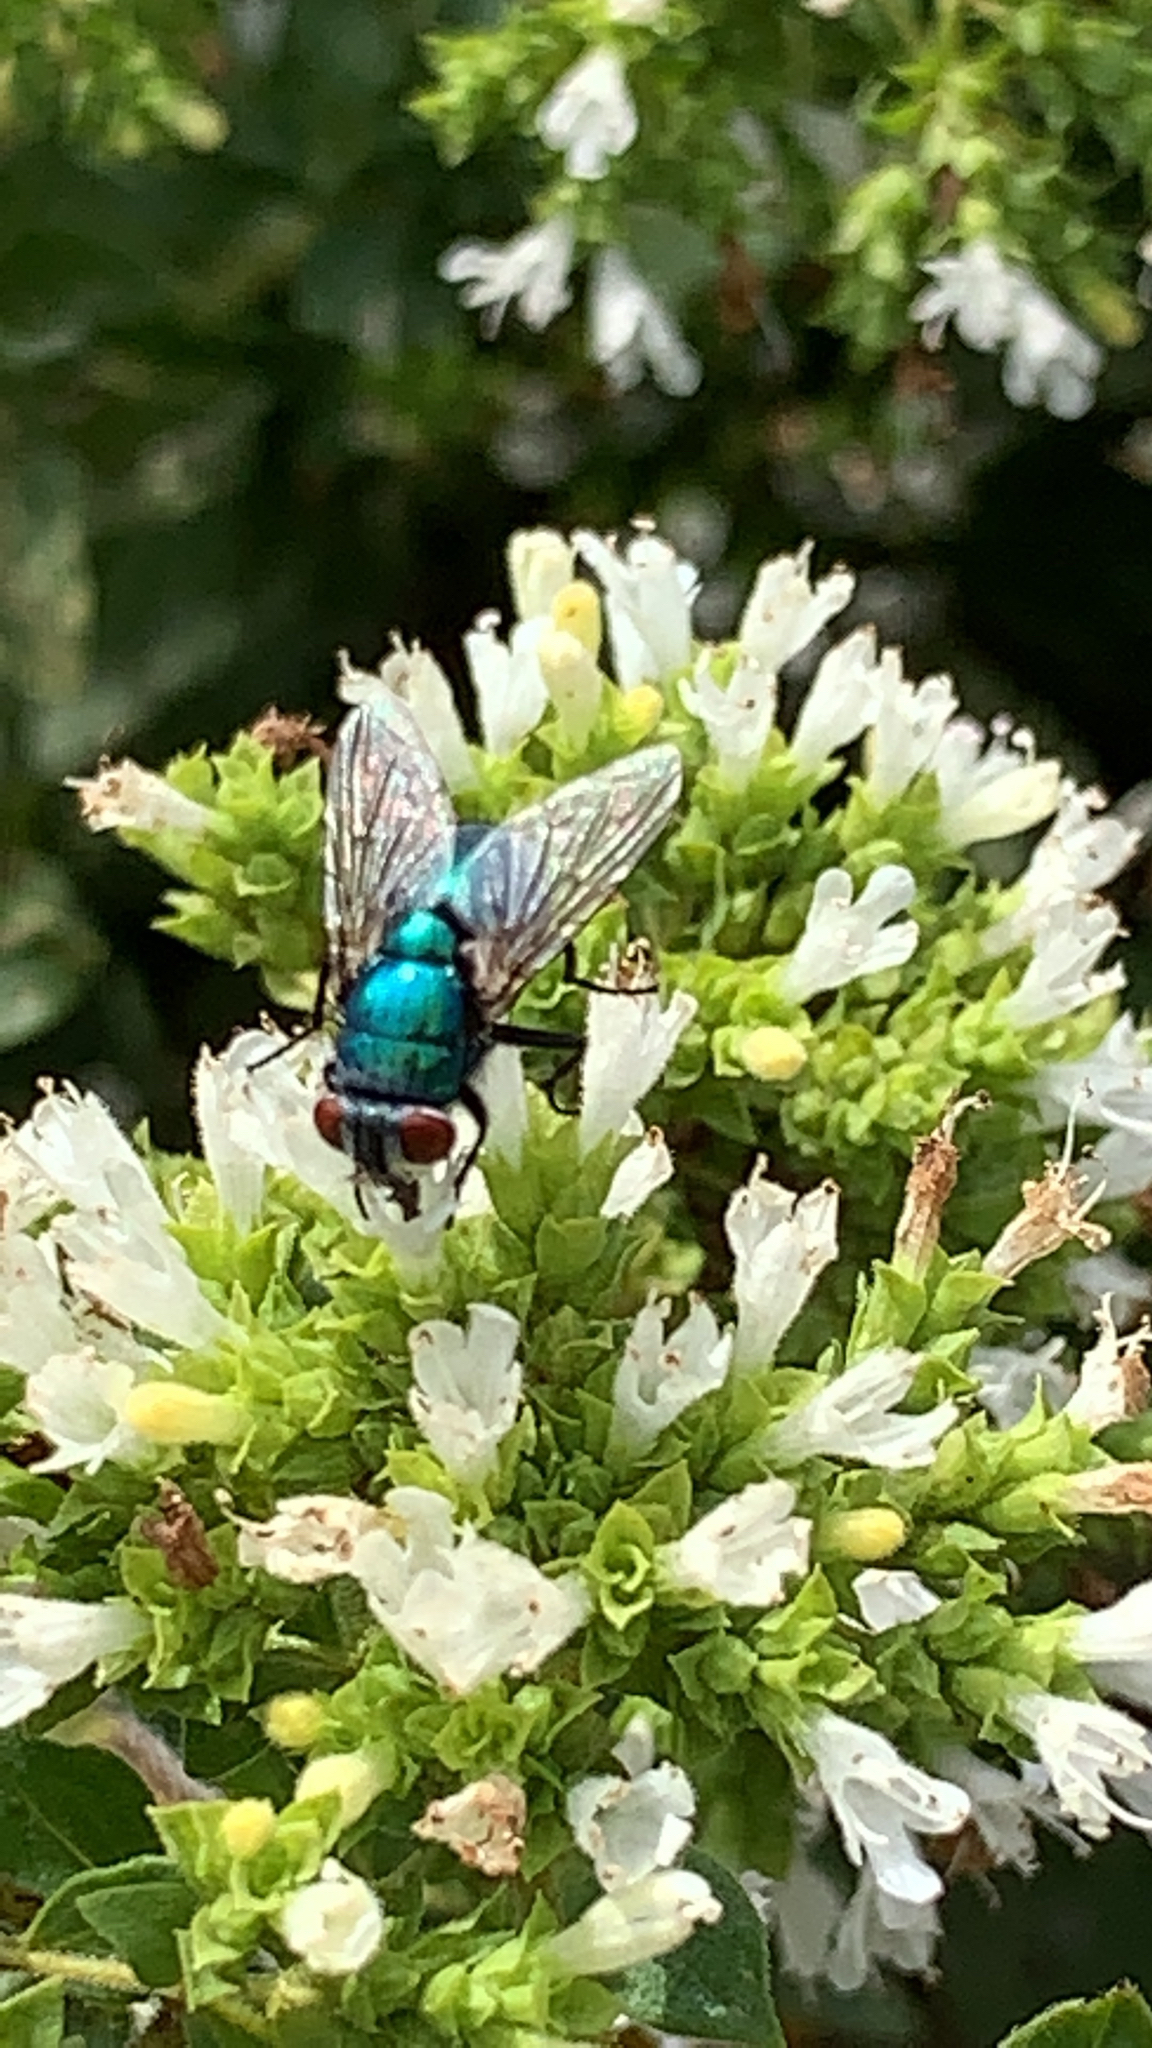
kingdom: Animalia
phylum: Arthropoda
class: Insecta
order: Diptera
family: Calliphoridae
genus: Lucilia
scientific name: Lucilia
